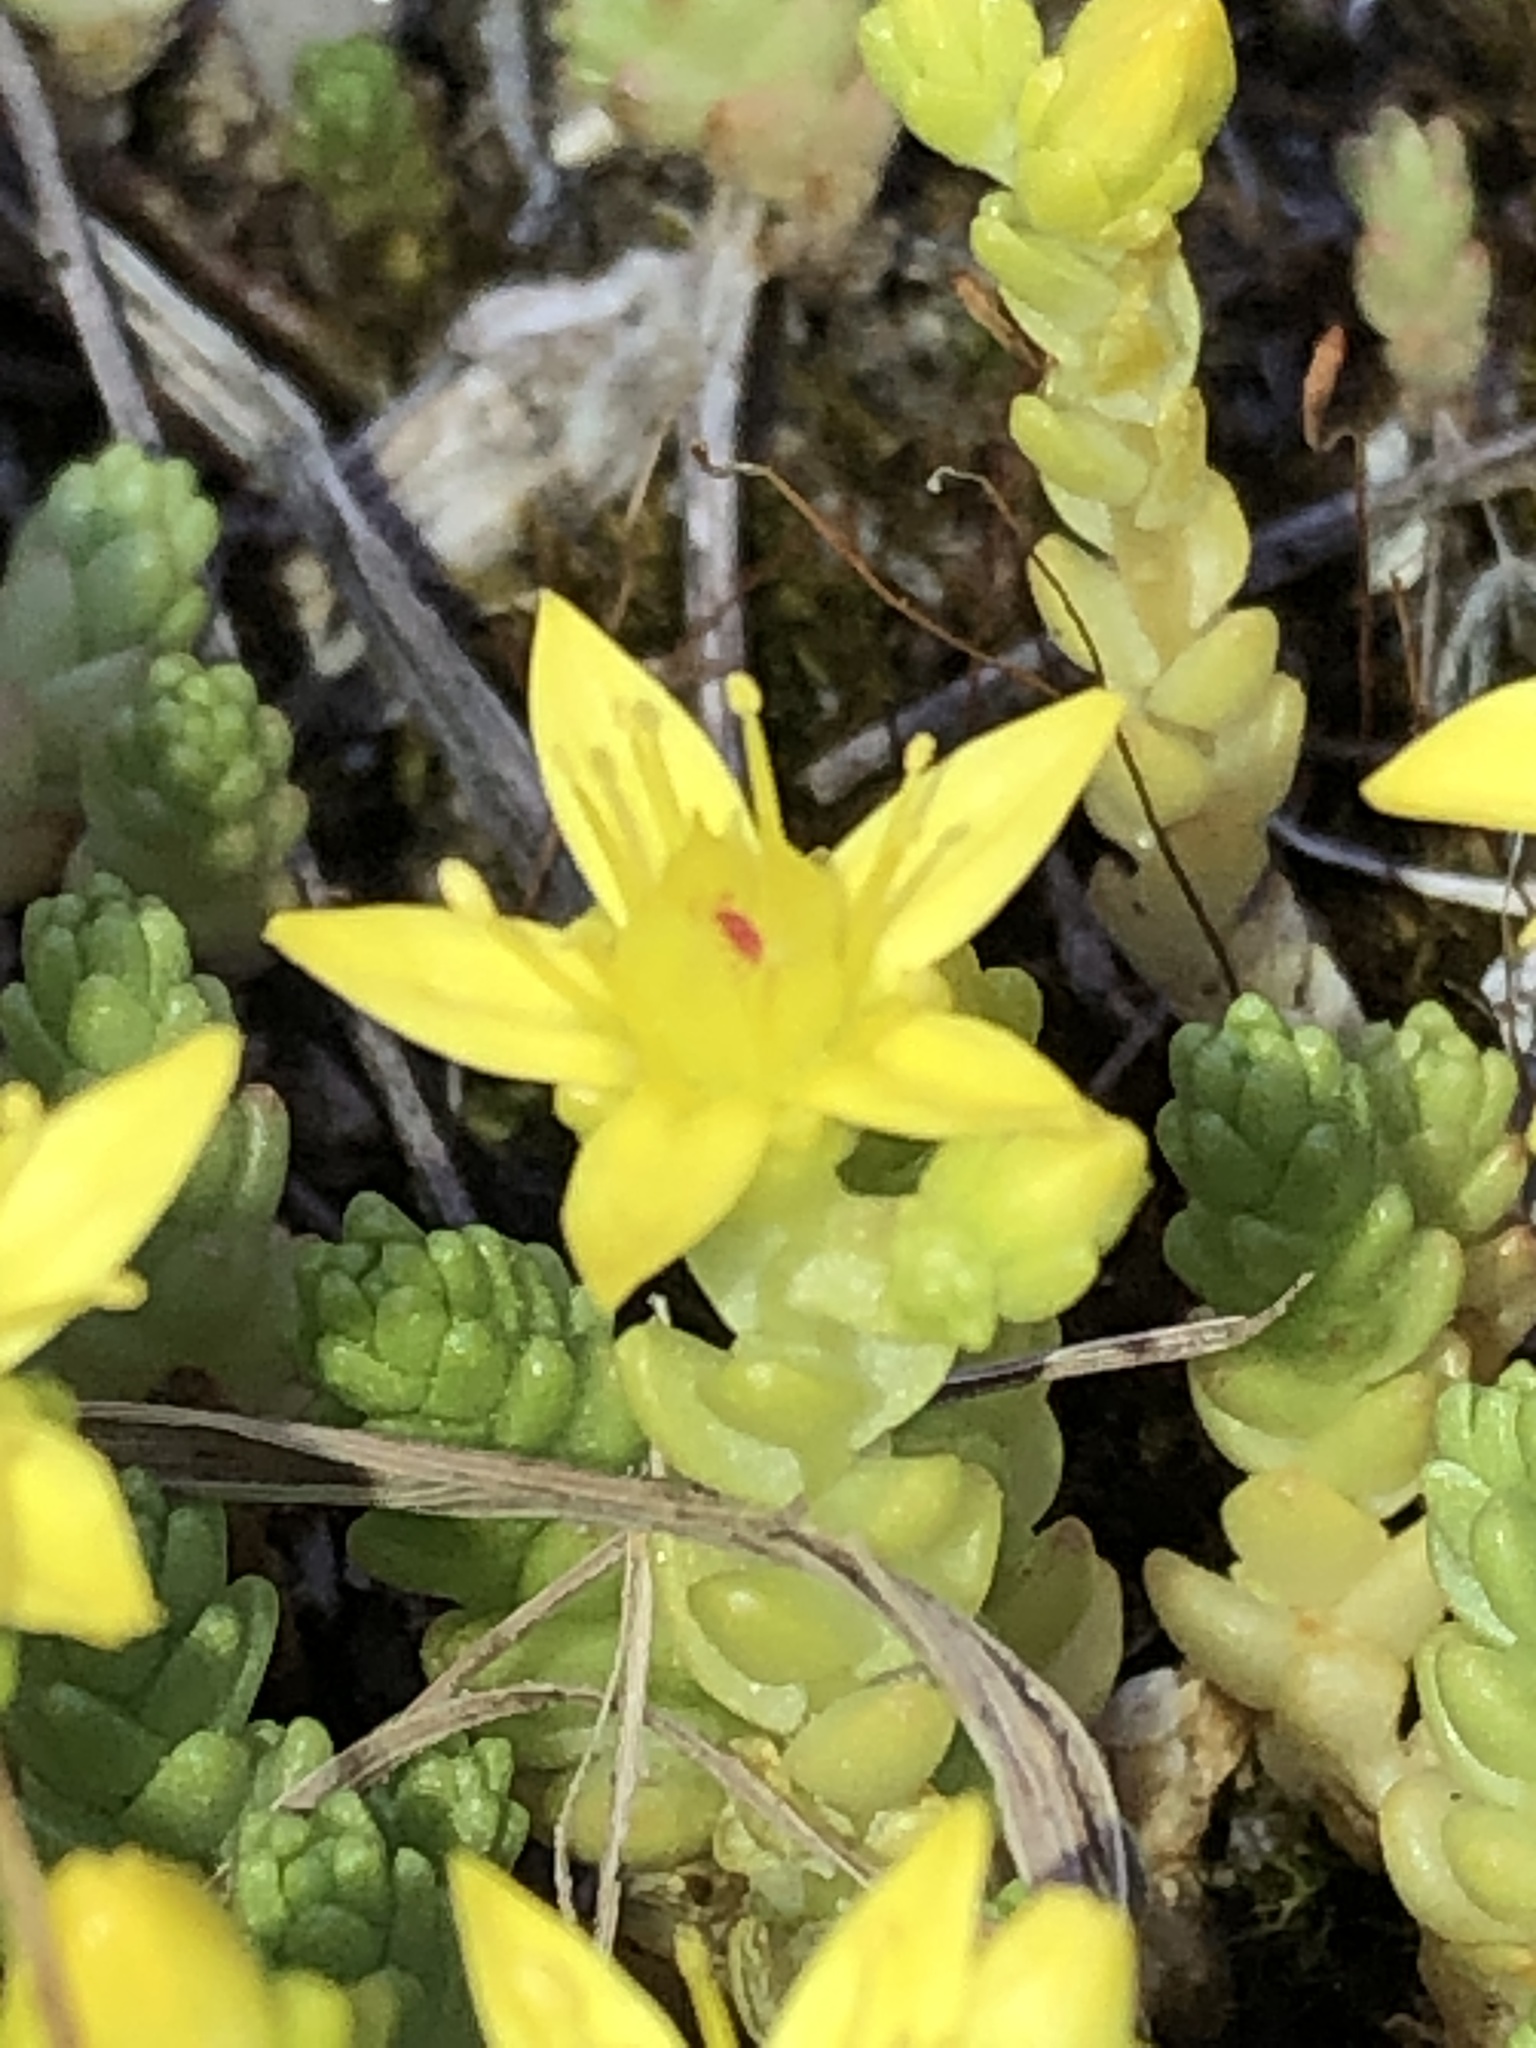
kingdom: Plantae
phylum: Tracheophyta
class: Magnoliopsida
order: Saxifragales
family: Crassulaceae
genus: Sedum
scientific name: Sedum acre
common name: Biting stonecrop
